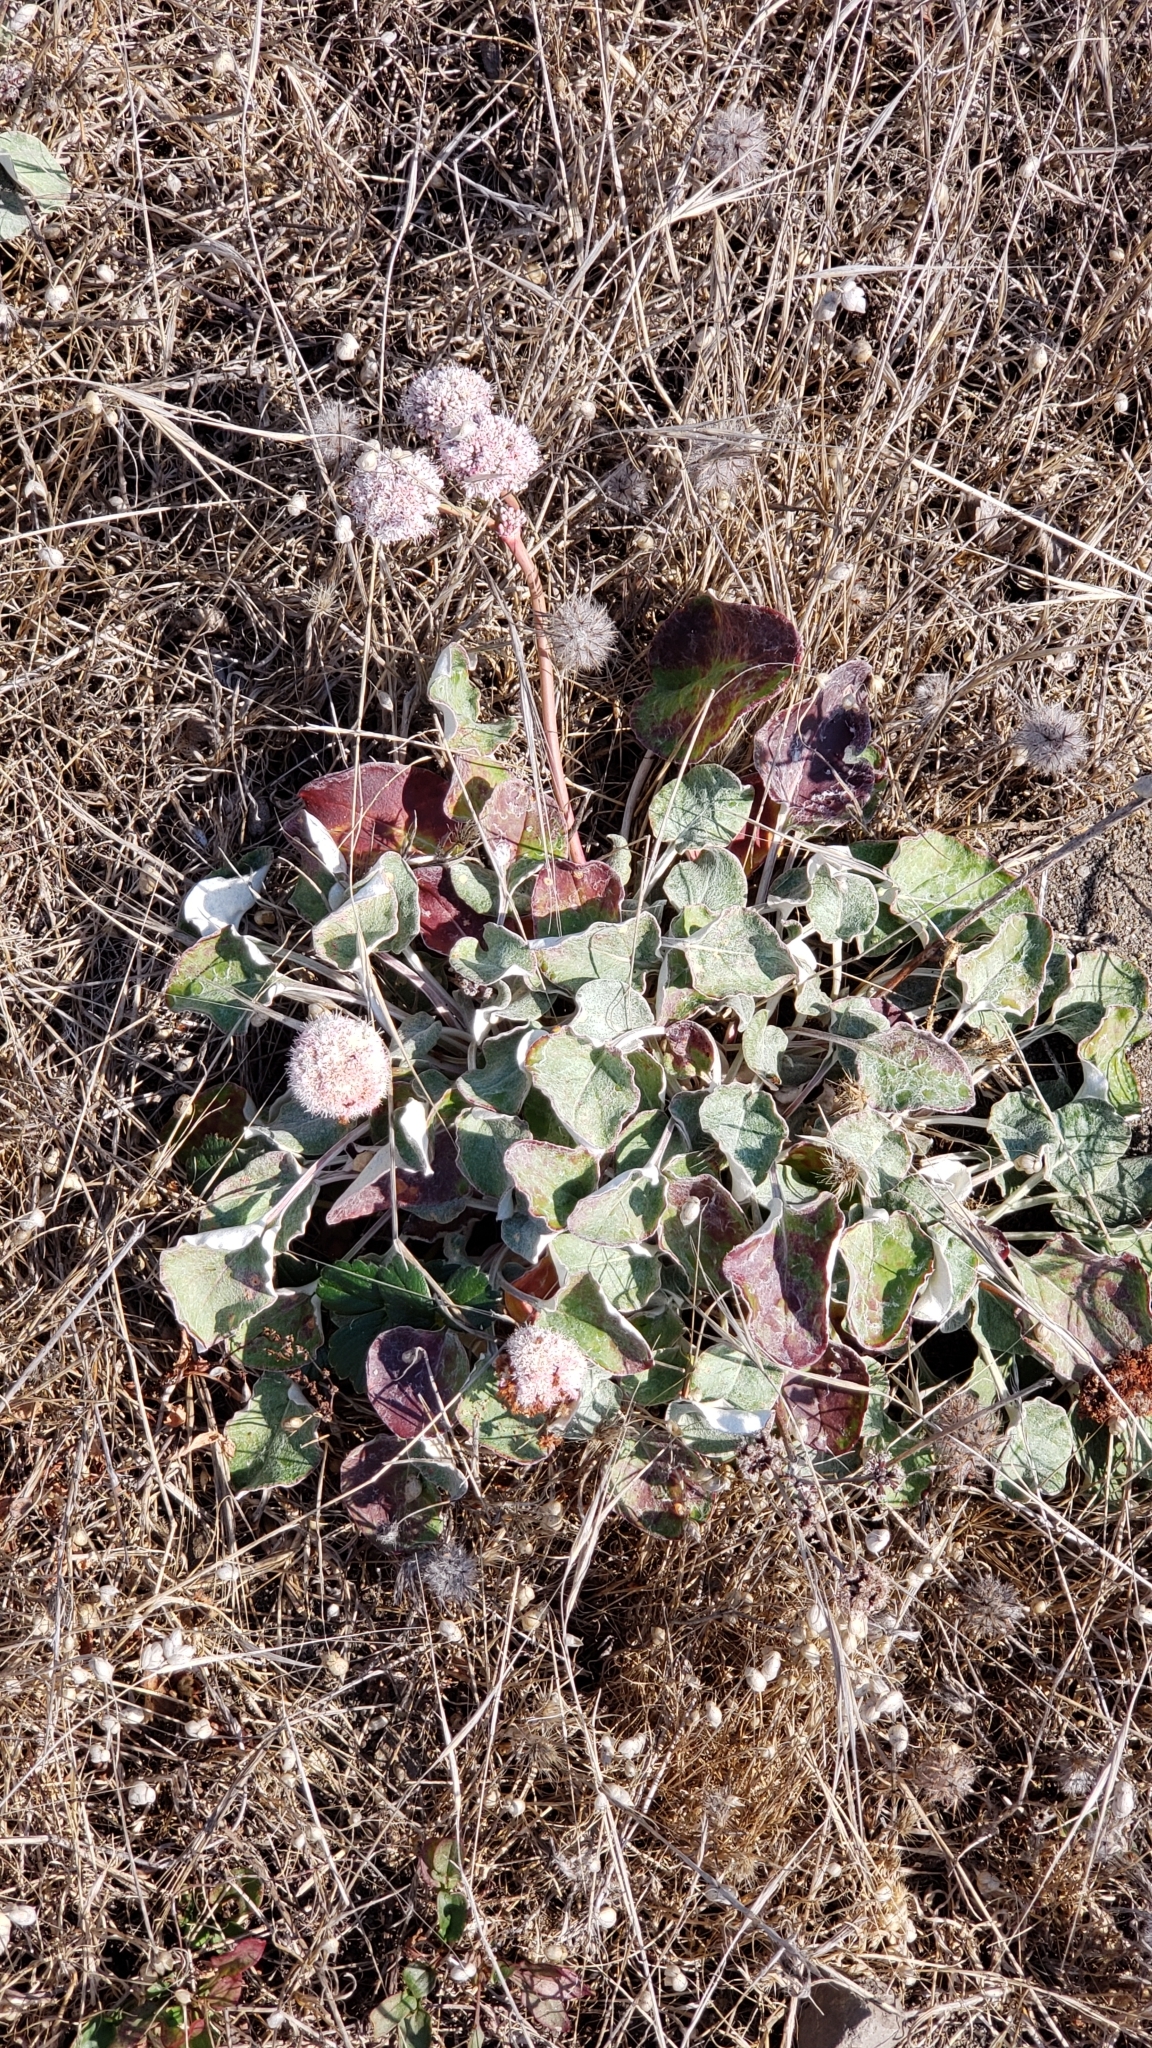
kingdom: Plantae
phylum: Tracheophyta
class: Magnoliopsida
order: Caryophyllales
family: Polygonaceae
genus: Eriogonum
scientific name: Eriogonum latifolium
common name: Seaside wild buckwheat
